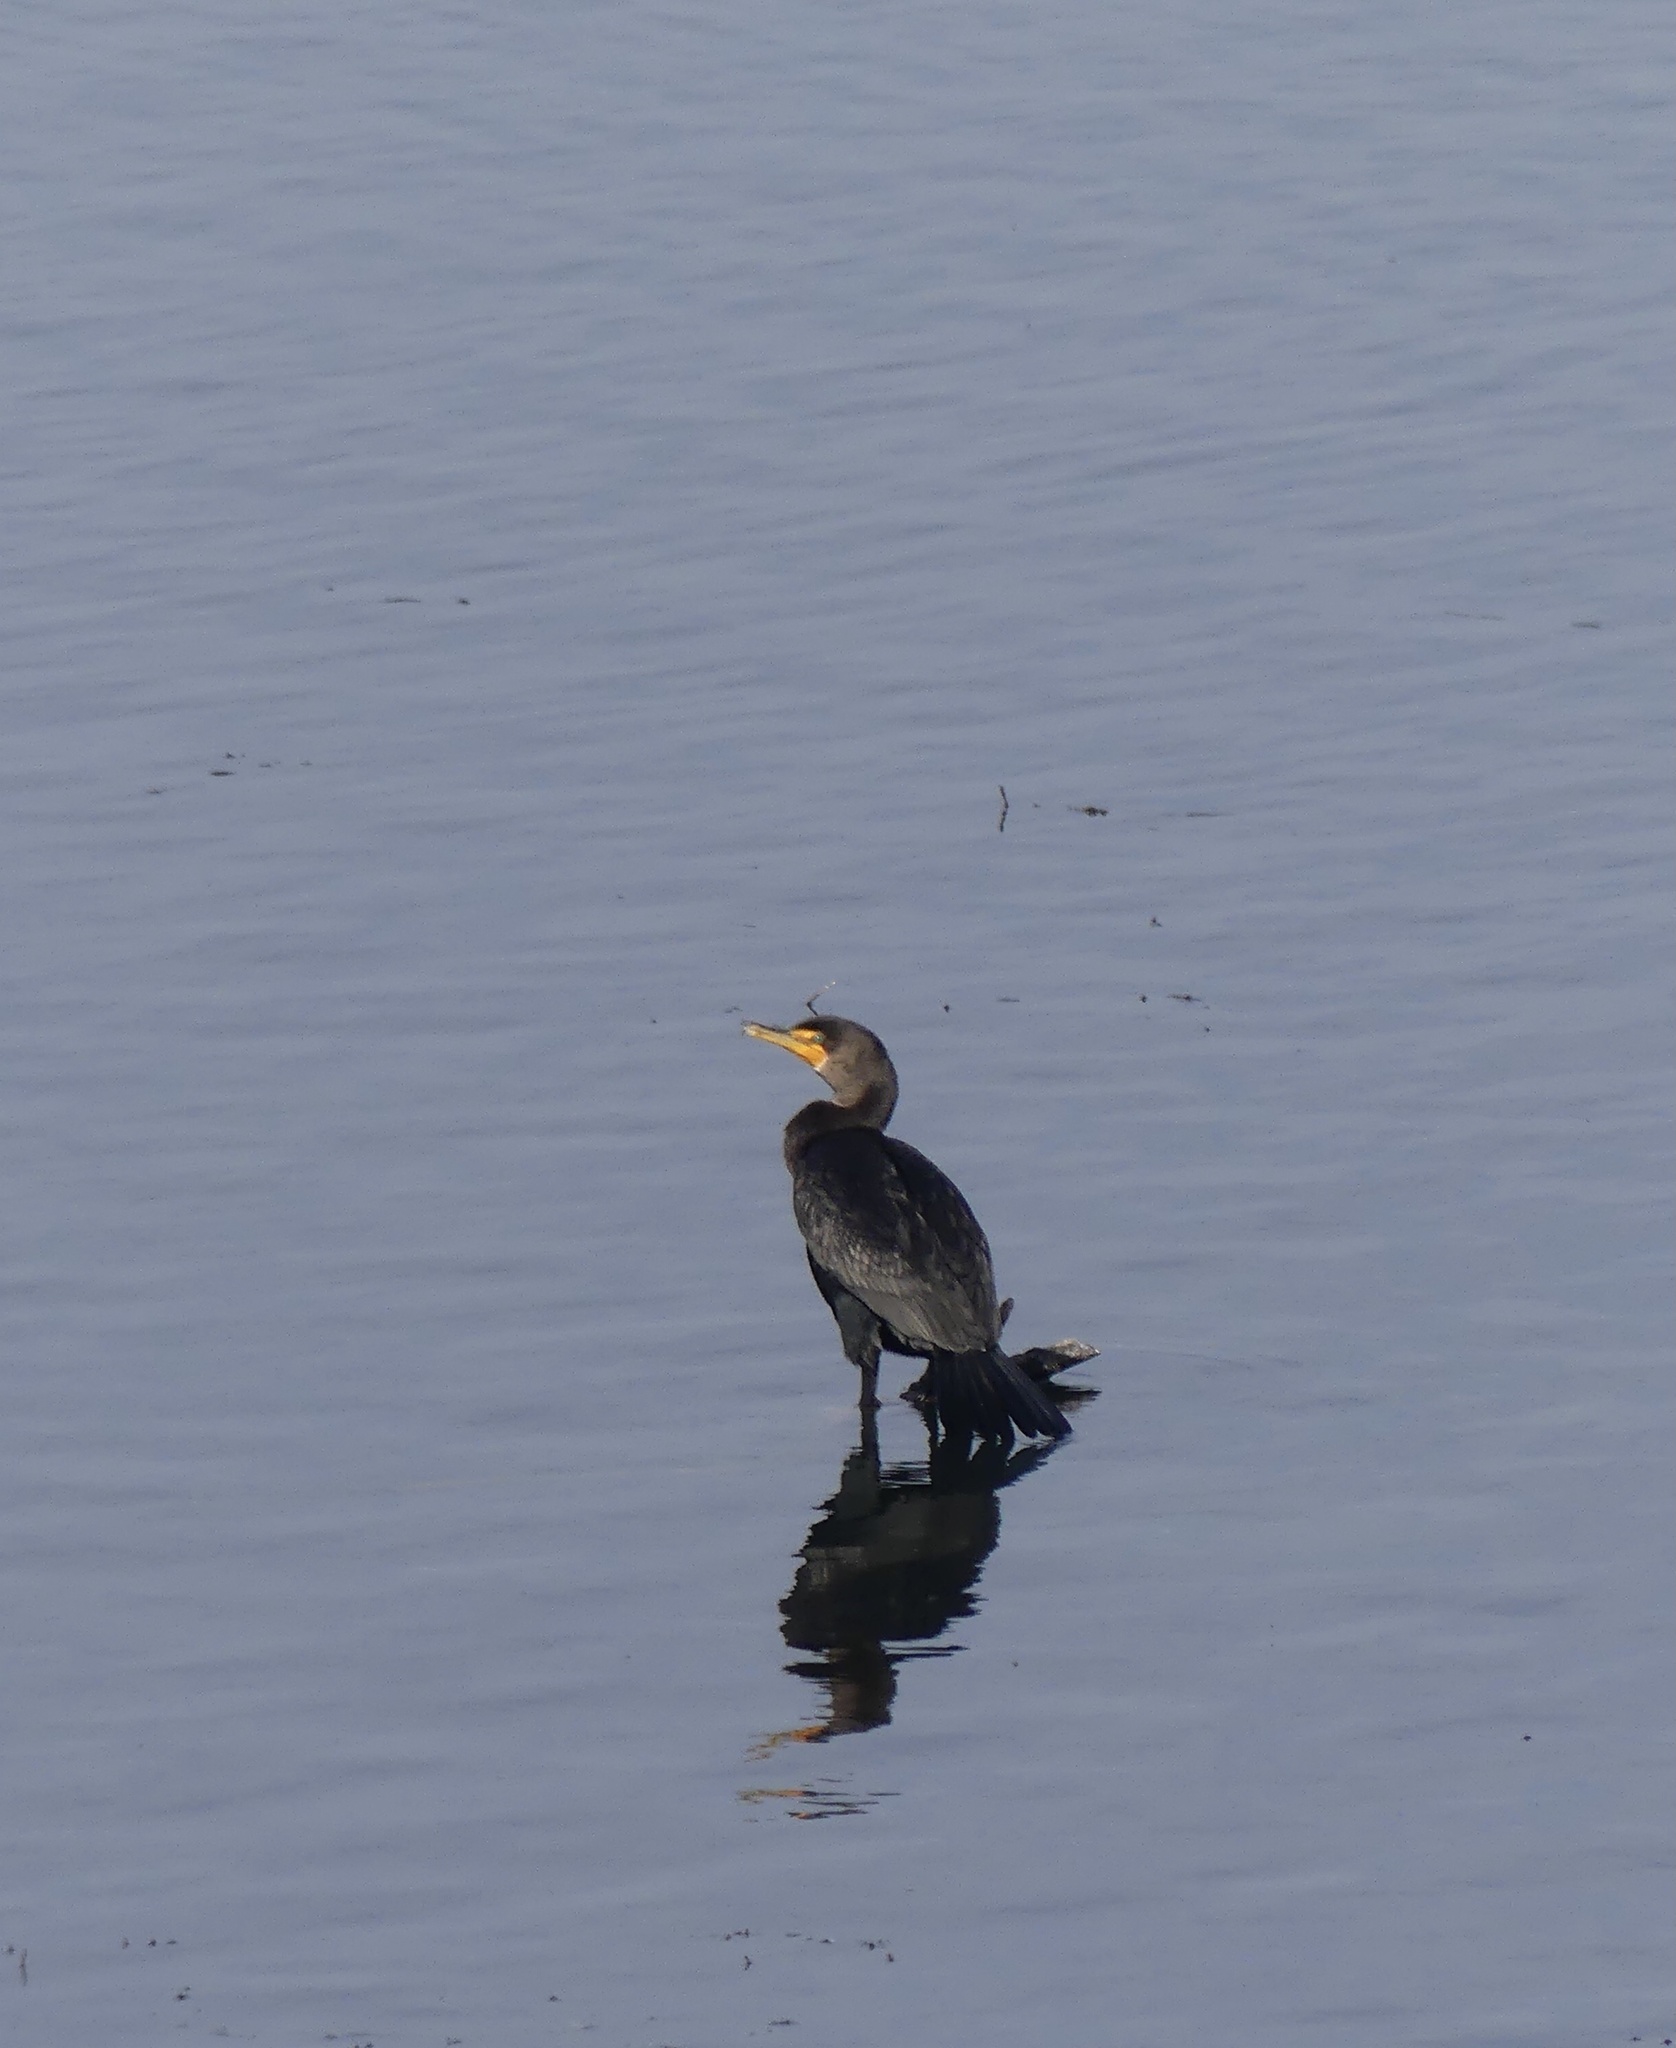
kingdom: Animalia
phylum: Chordata
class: Aves
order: Suliformes
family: Phalacrocoracidae
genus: Phalacrocorax
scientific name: Phalacrocorax auritus
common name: Double-crested cormorant
